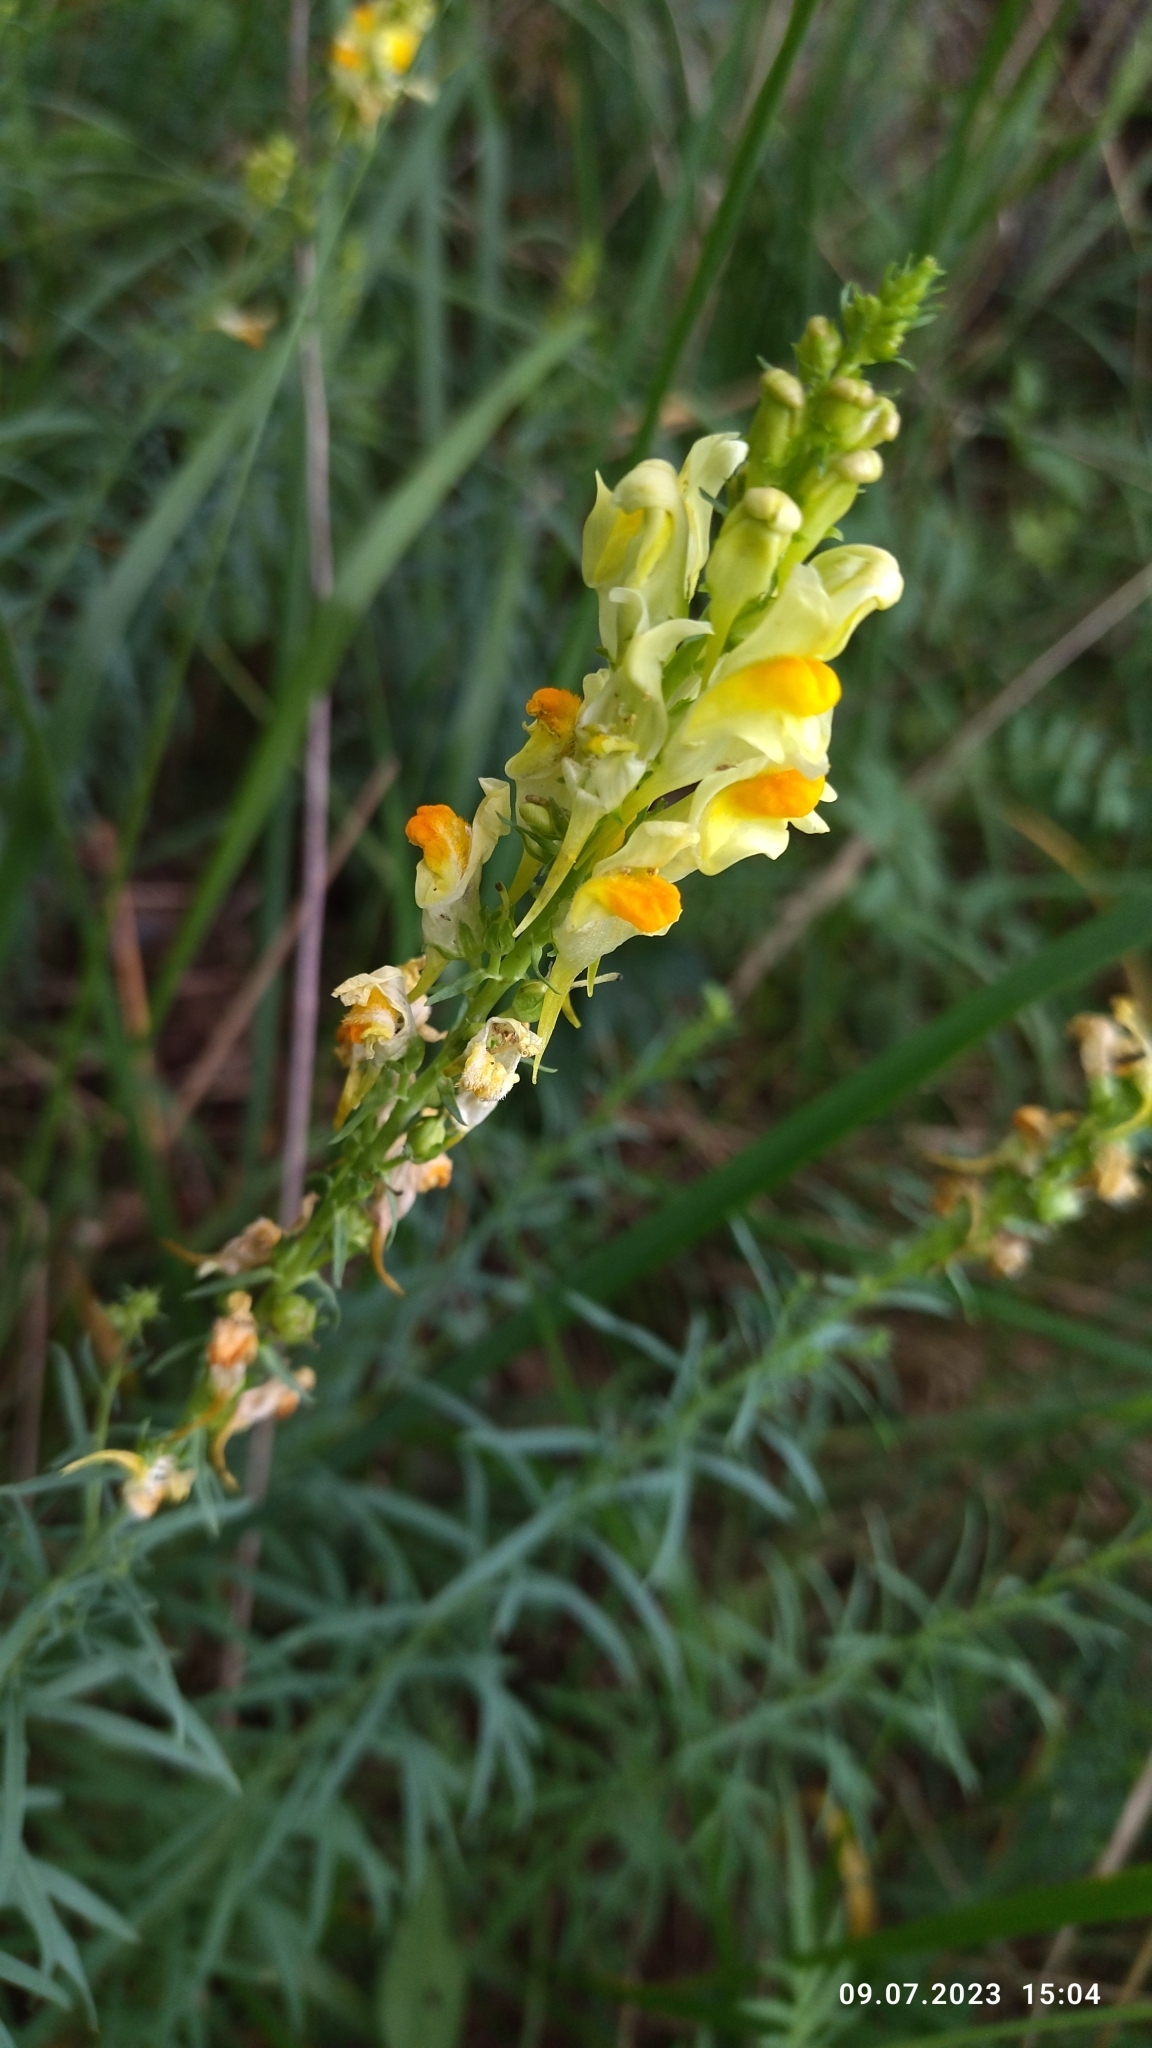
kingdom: Plantae
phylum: Tracheophyta
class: Magnoliopsida
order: Lamiales
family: Plantaginaceae
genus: Linaria
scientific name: Linaria vulgaris
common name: Butter and eggs
